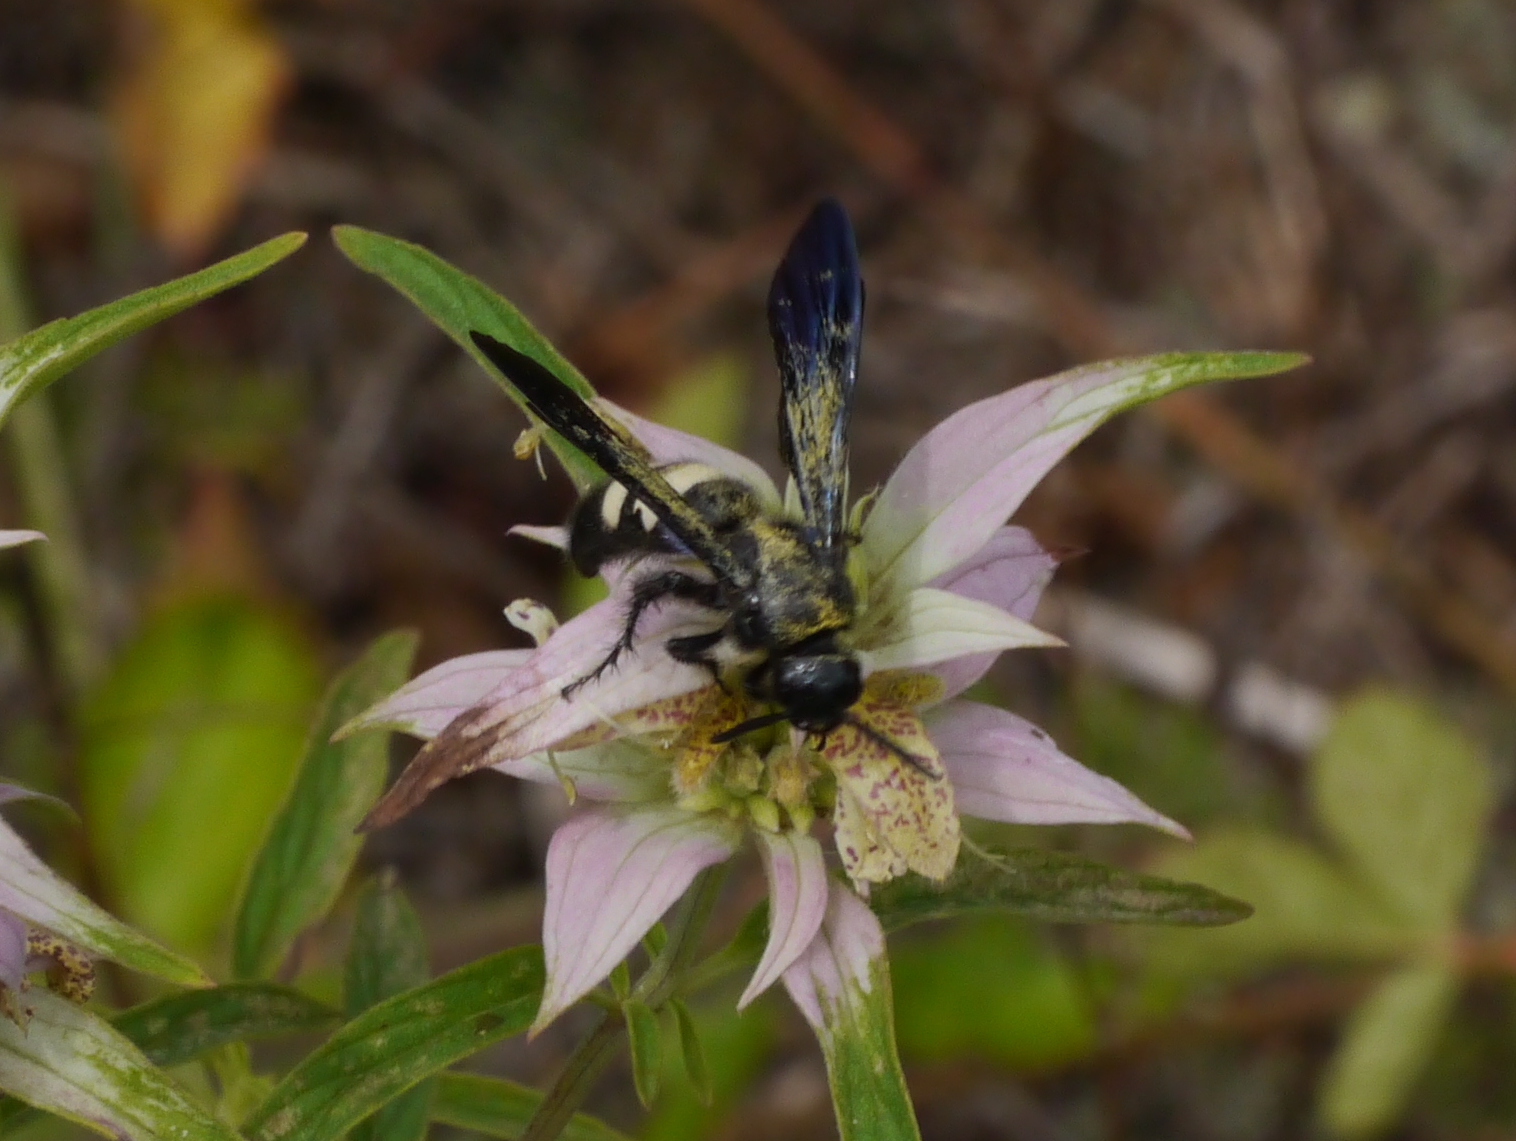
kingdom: Animalia
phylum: Arthropoda
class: Insecta
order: Hymenoptera
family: Scoliidae
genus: Scolia
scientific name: Scolia bicincta
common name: Double-banded scoliid wasp
